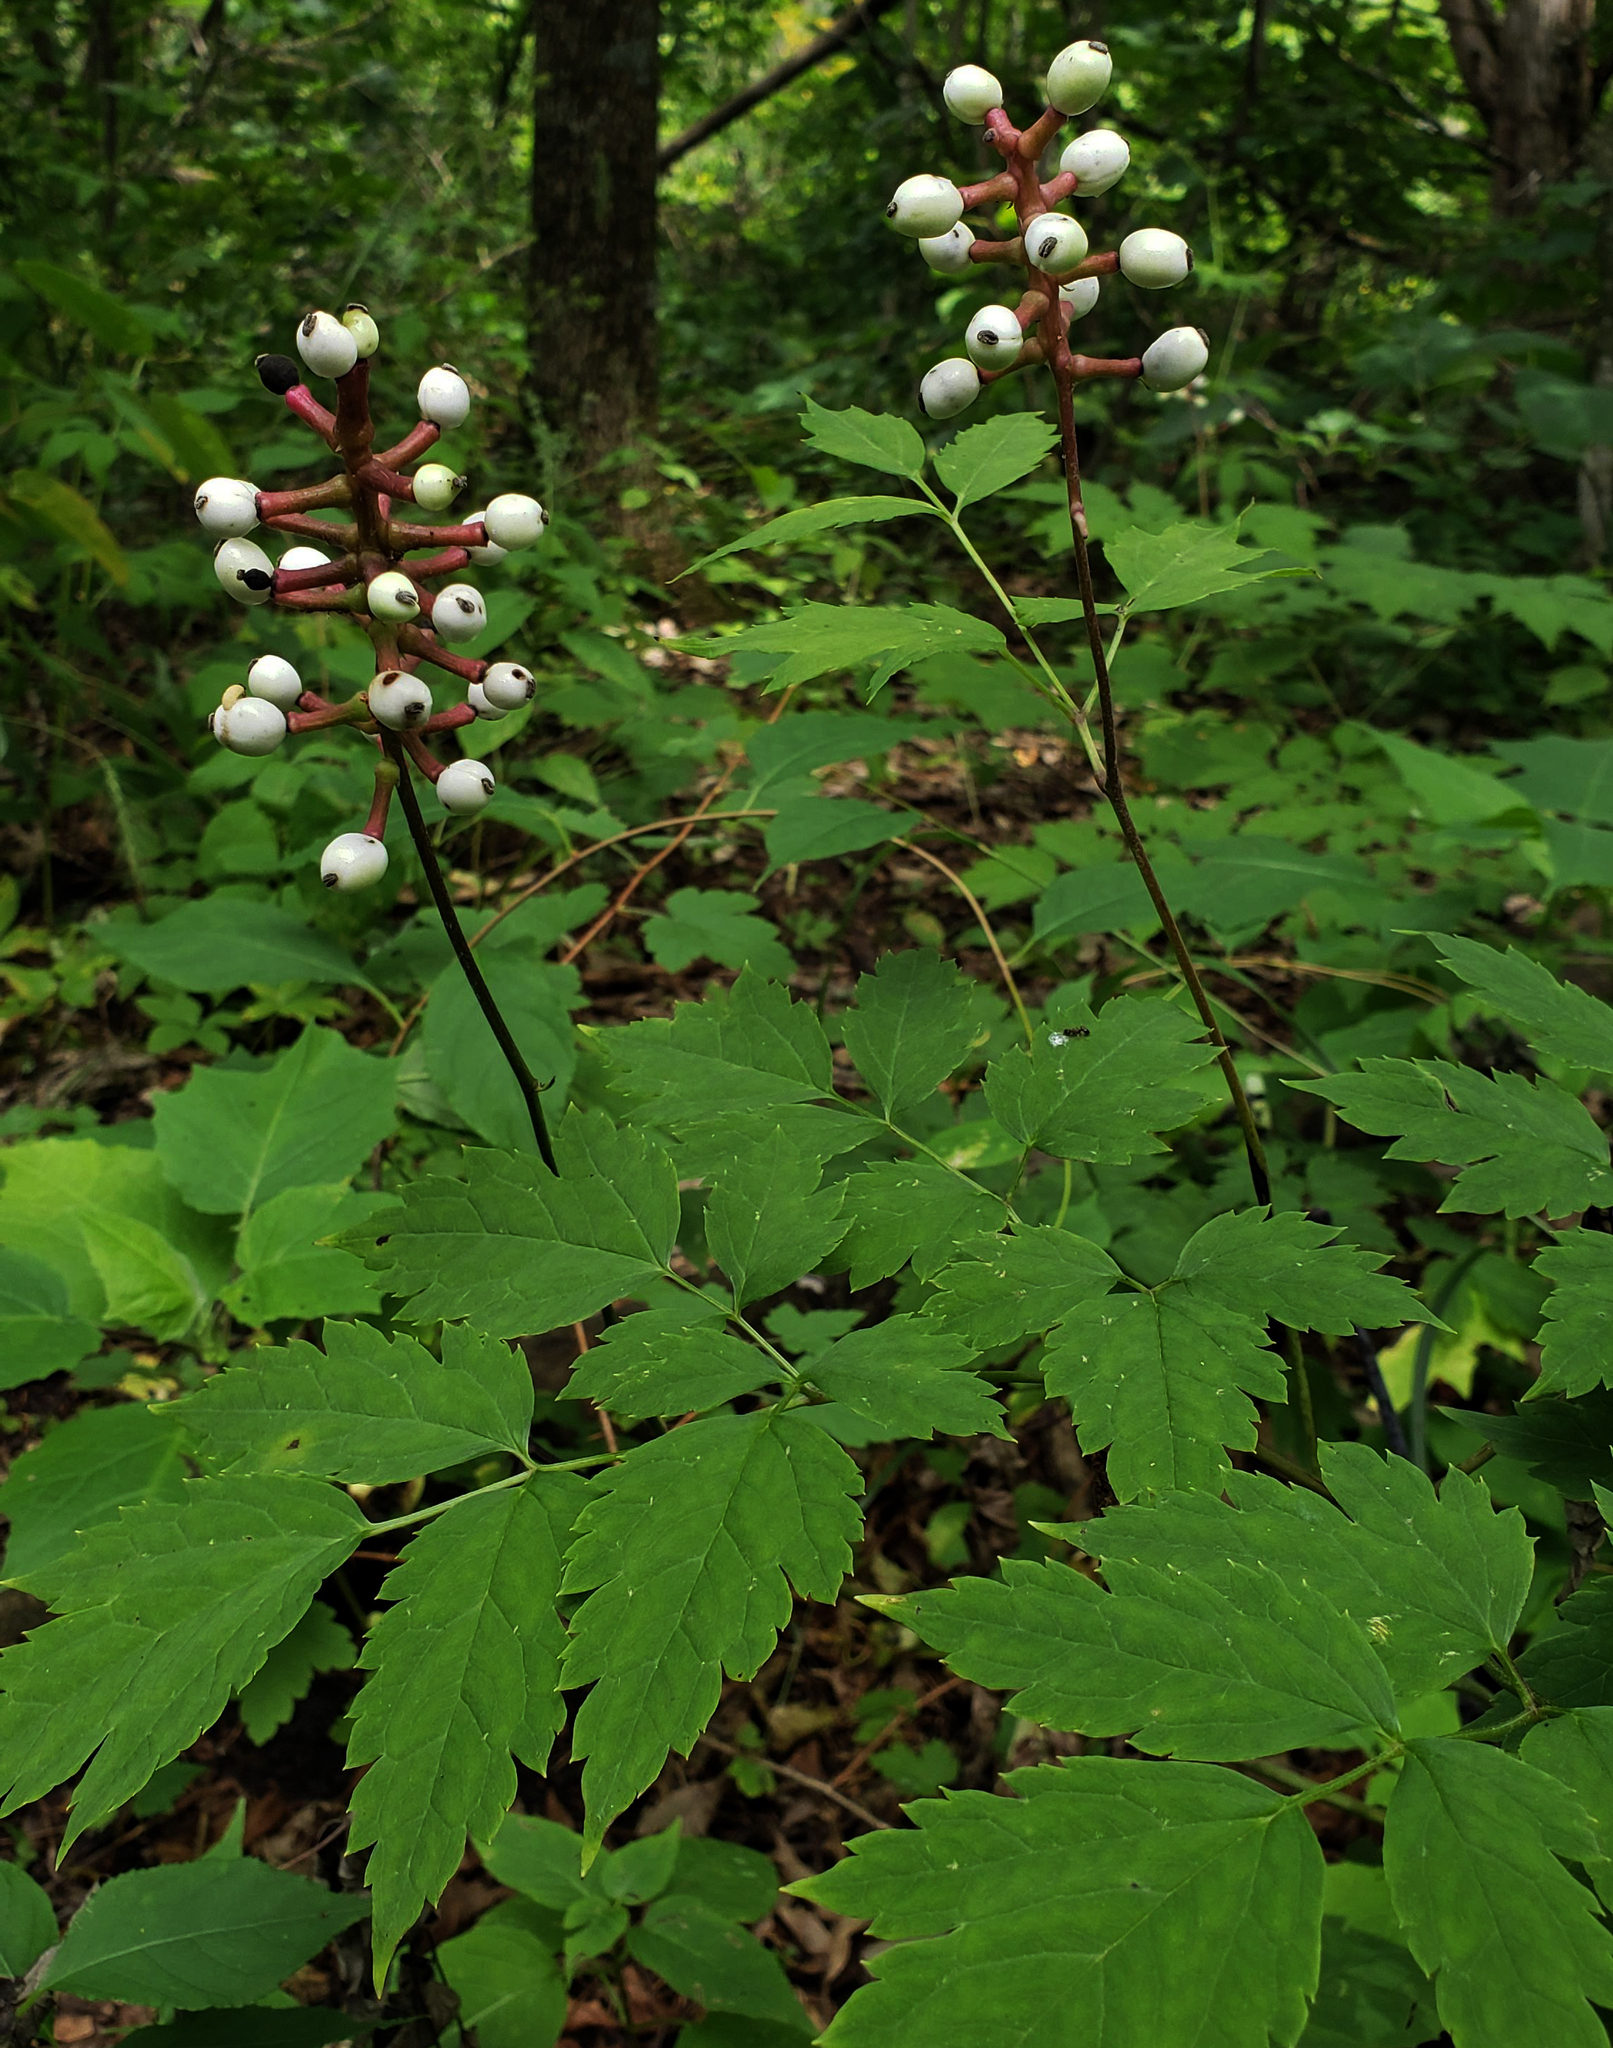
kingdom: Plantae
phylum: Tracheophyta
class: Magnoliopsida
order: Ranunculales
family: Ranunculaceae
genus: Actaea
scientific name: Actaea pachypoda
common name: Doll's-eyes
